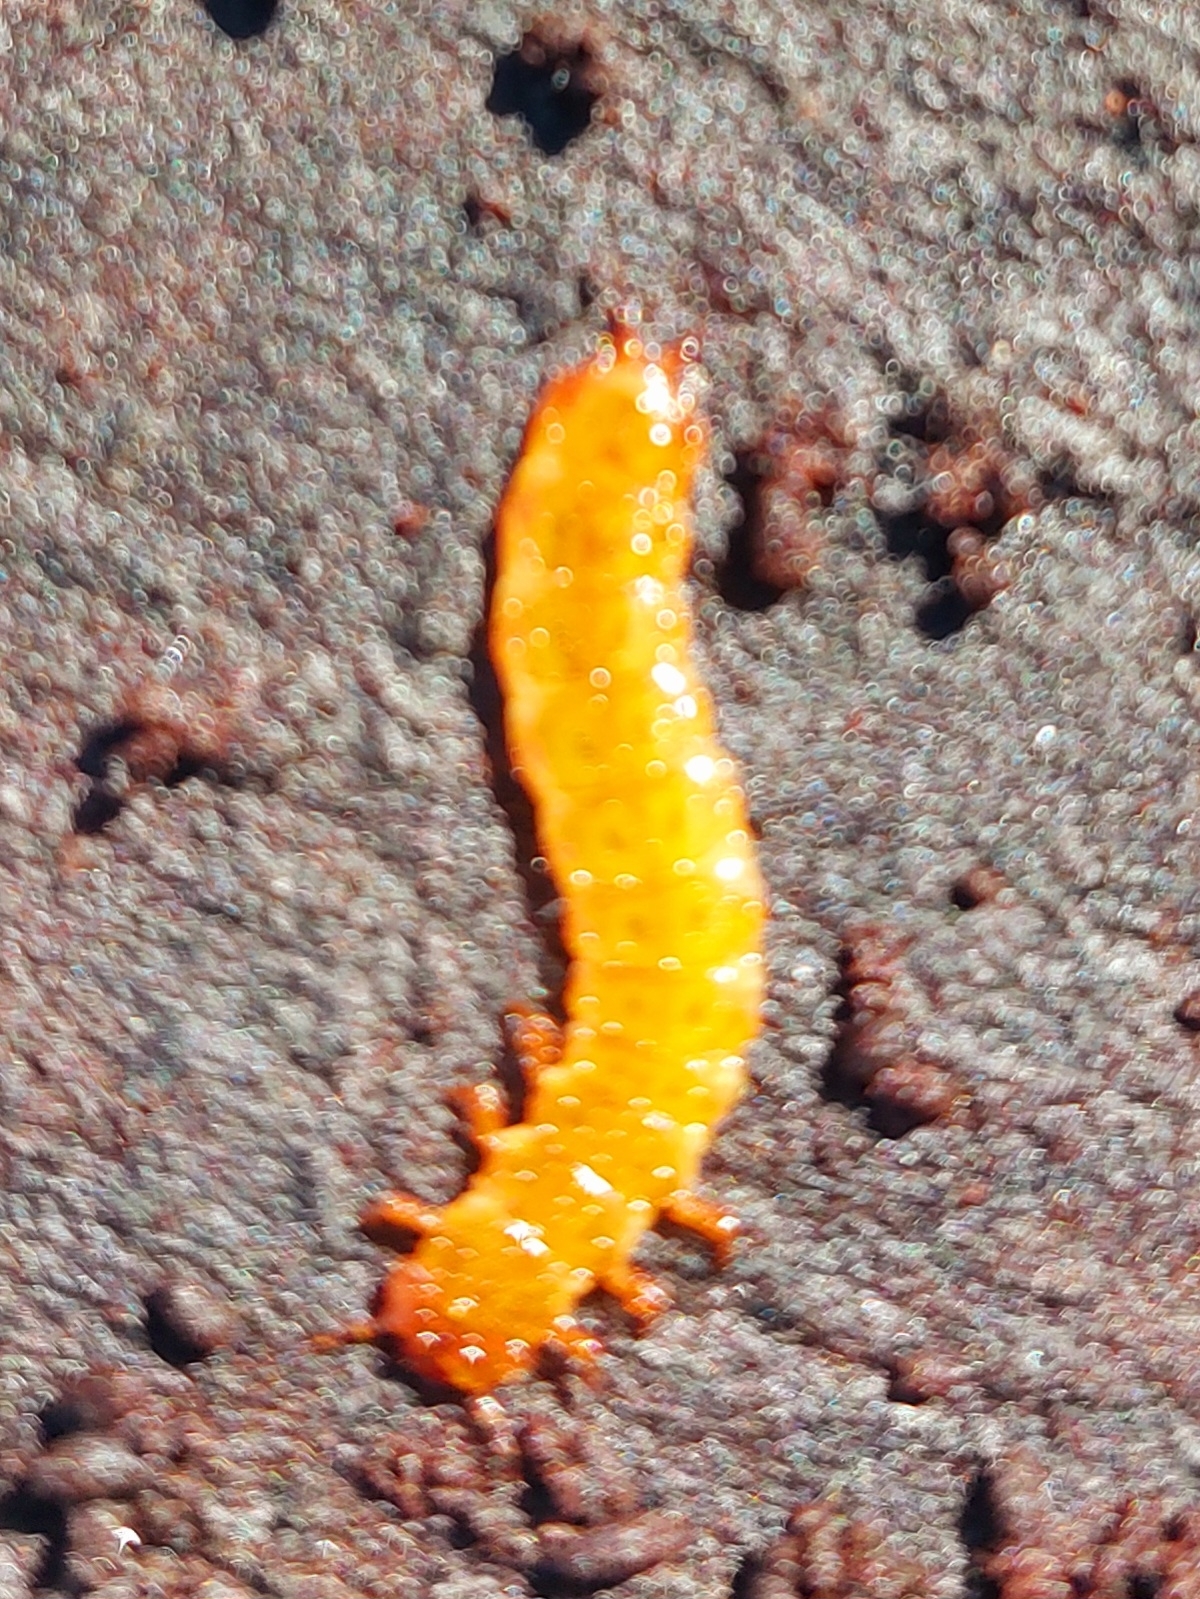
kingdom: Animalia
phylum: Arthropoda
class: Insecta
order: Coleoptera
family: Cucujidae
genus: Cucujus
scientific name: Cucujus clavipes
